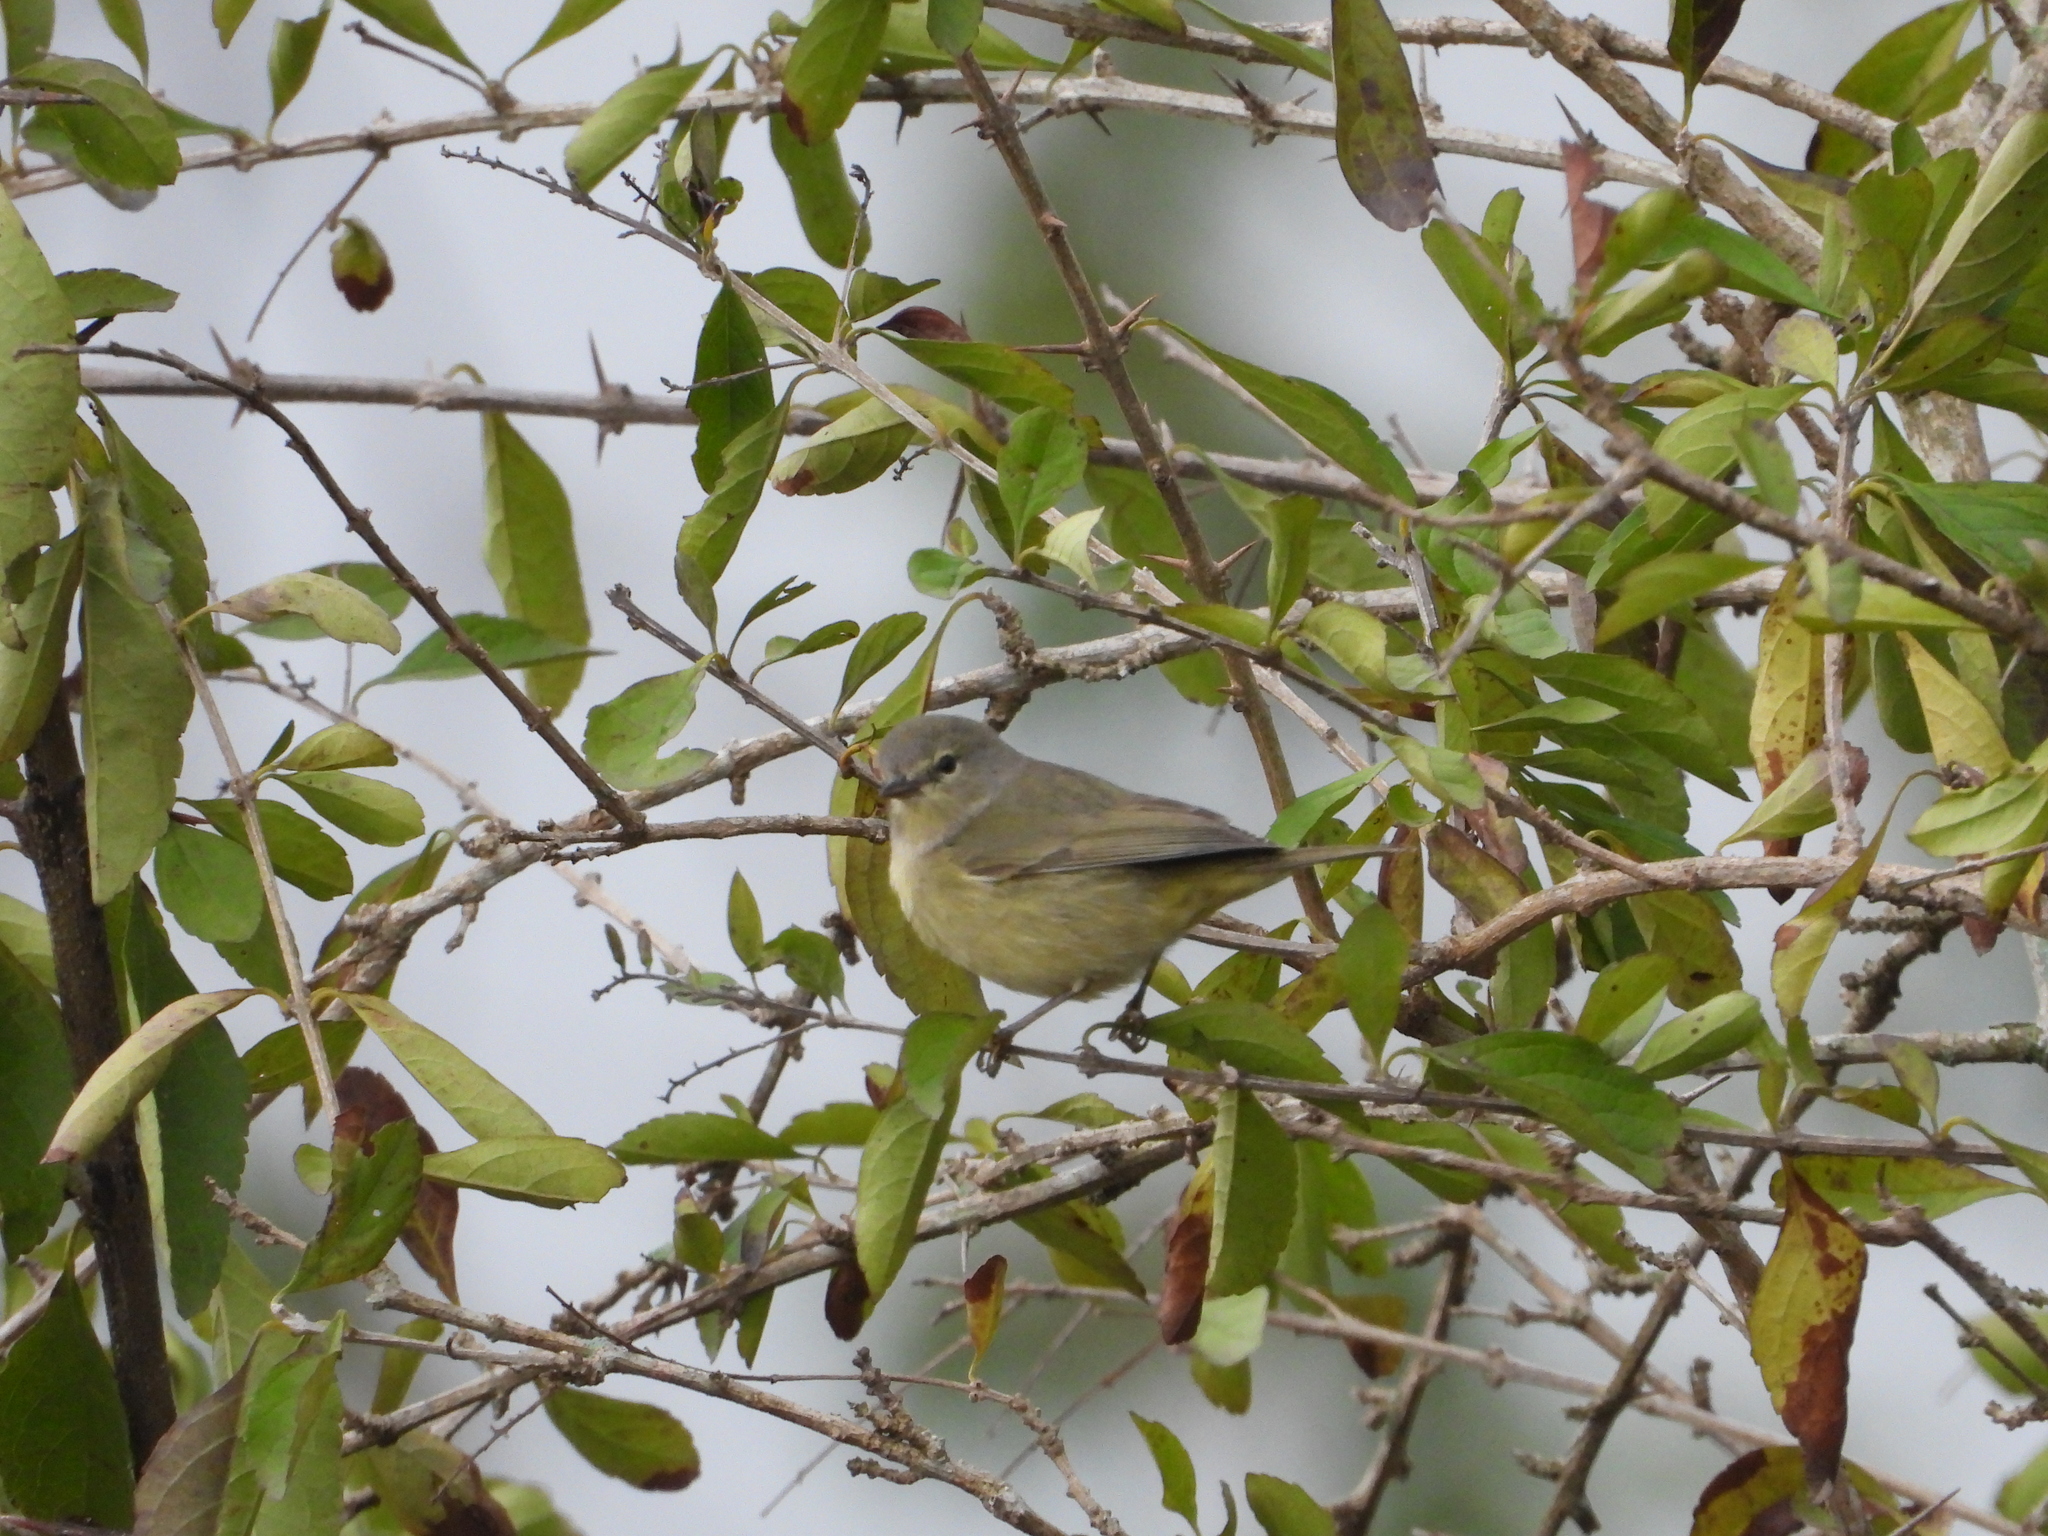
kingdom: Animalia
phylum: Chordata
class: Aves
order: Passeriformes
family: Parulidae
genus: Leiothlypis
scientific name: Leiothlypis celata
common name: Orange-crowned warbler
